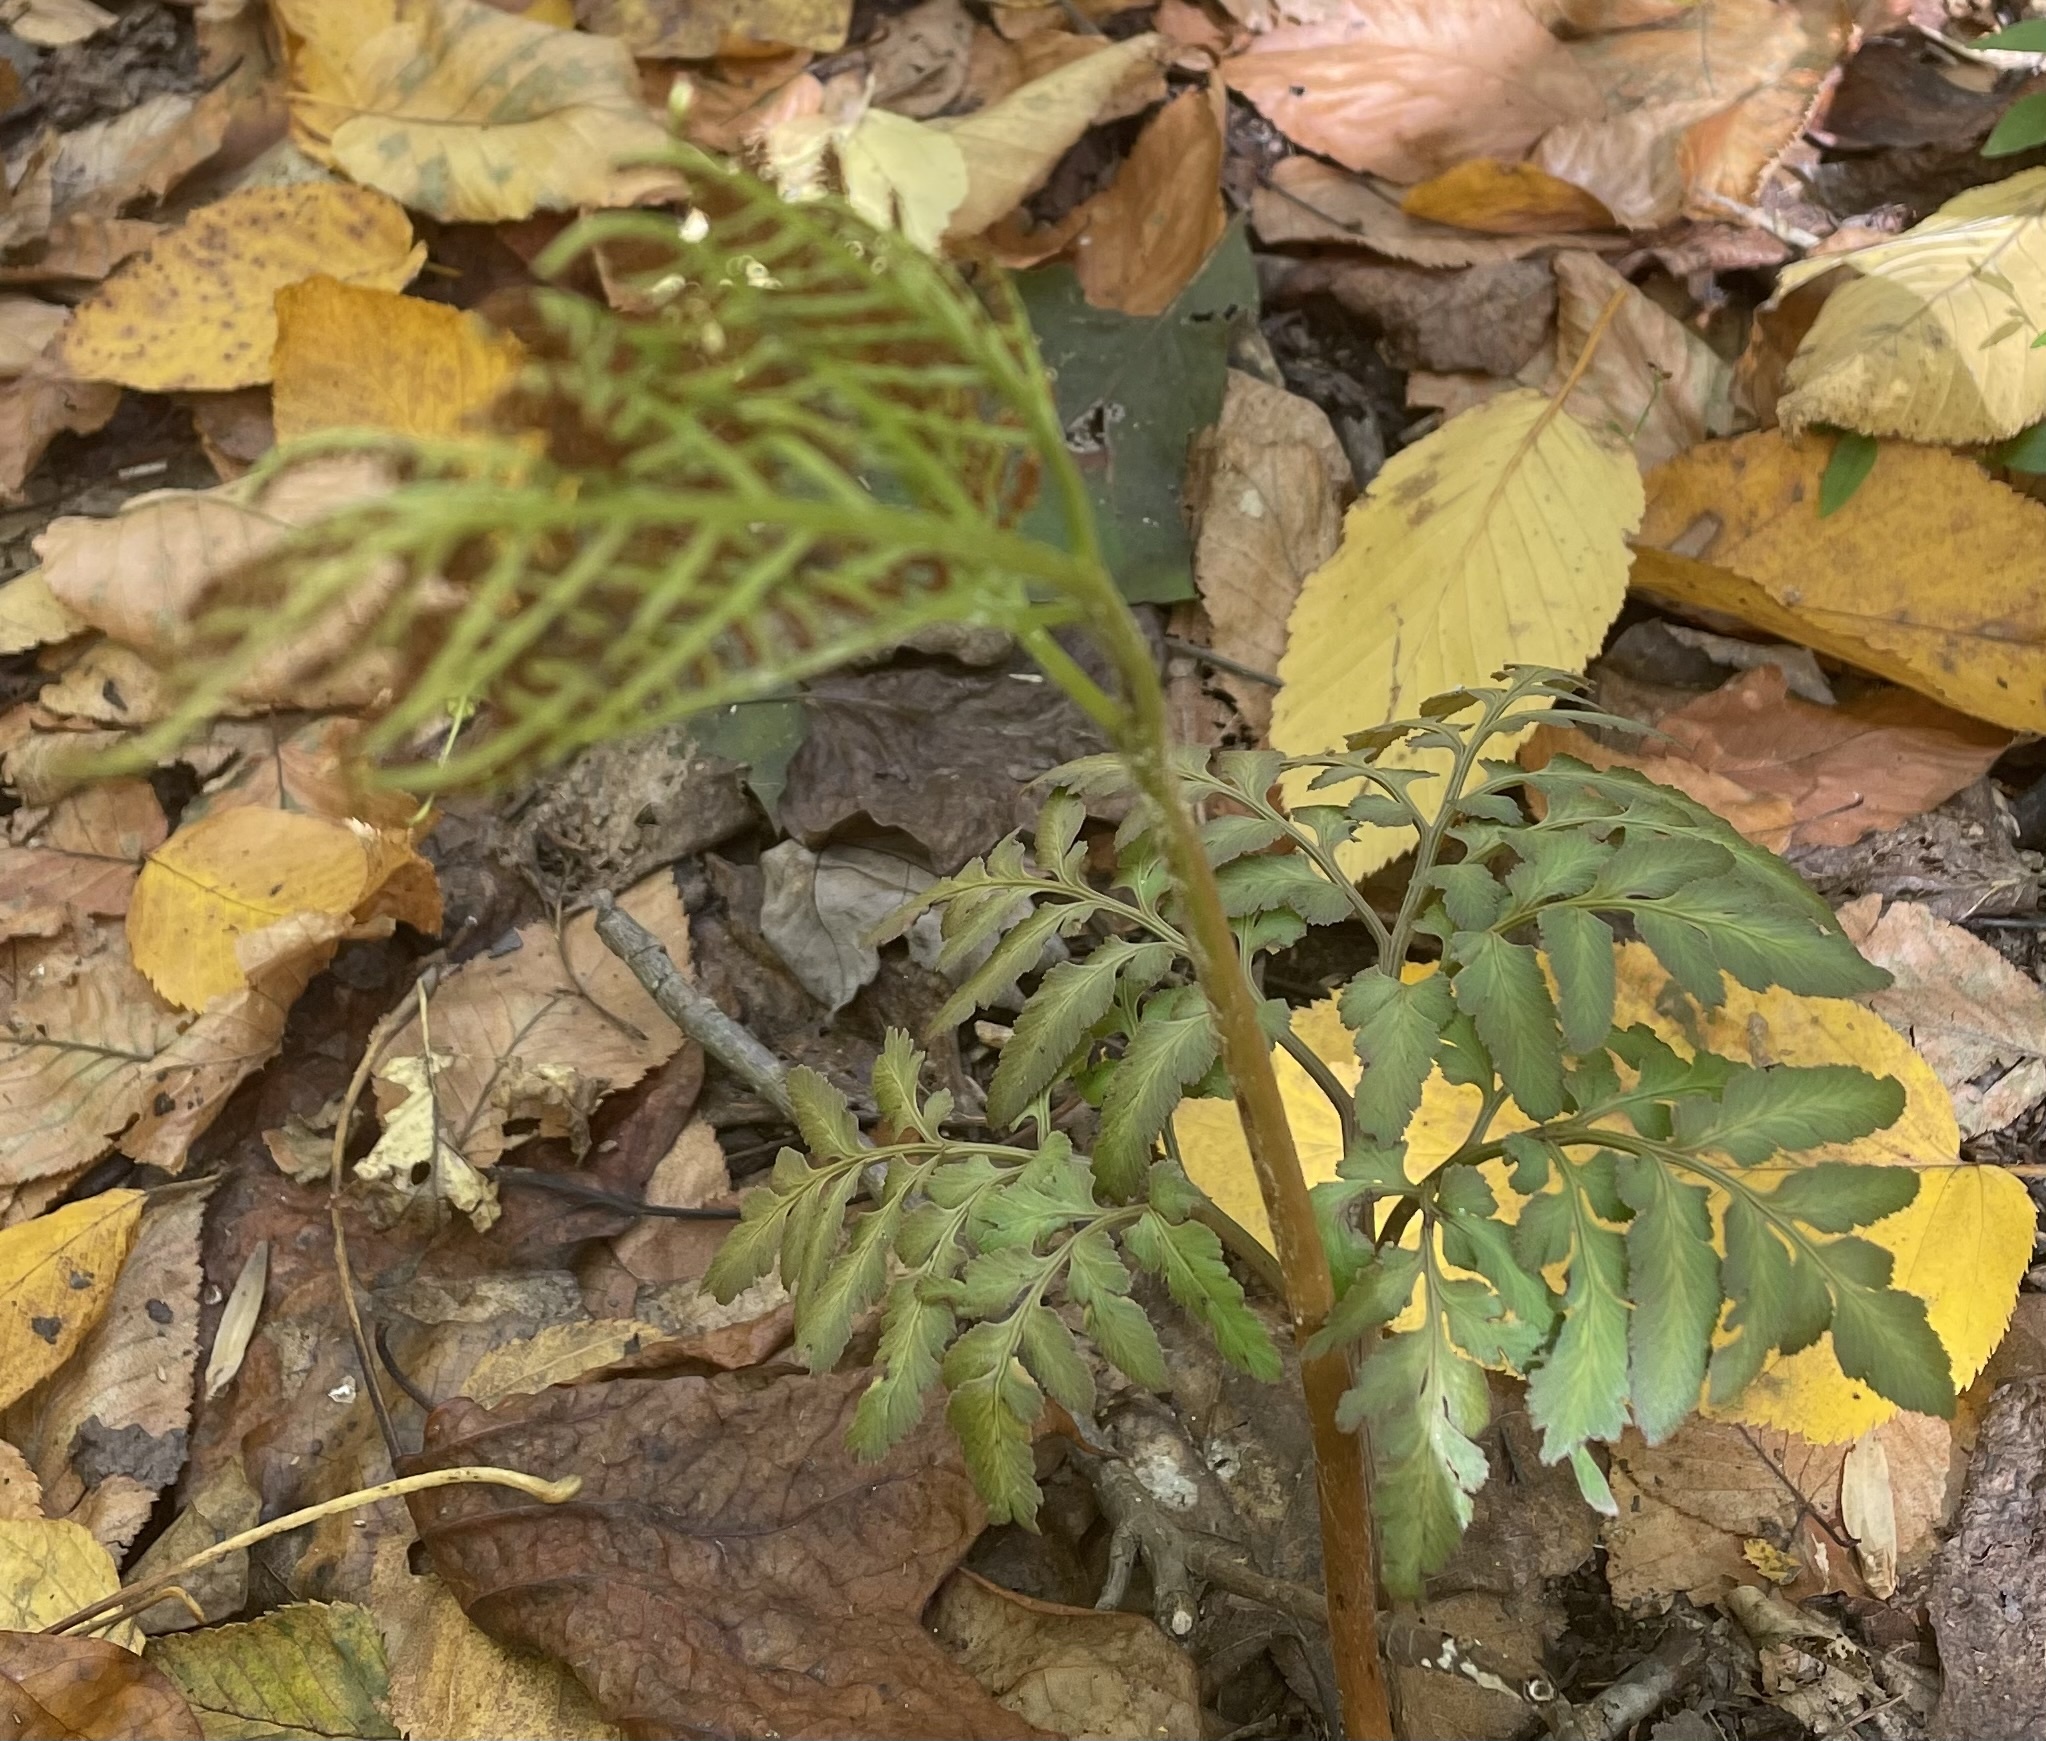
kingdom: Plantae
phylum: Tracheophyta
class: Polypodiopsida
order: Ophioglossales
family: Ophioglossaceae
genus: Sceptridium
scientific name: Sceptridium dissectum
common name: Cut-leaved grapefern
